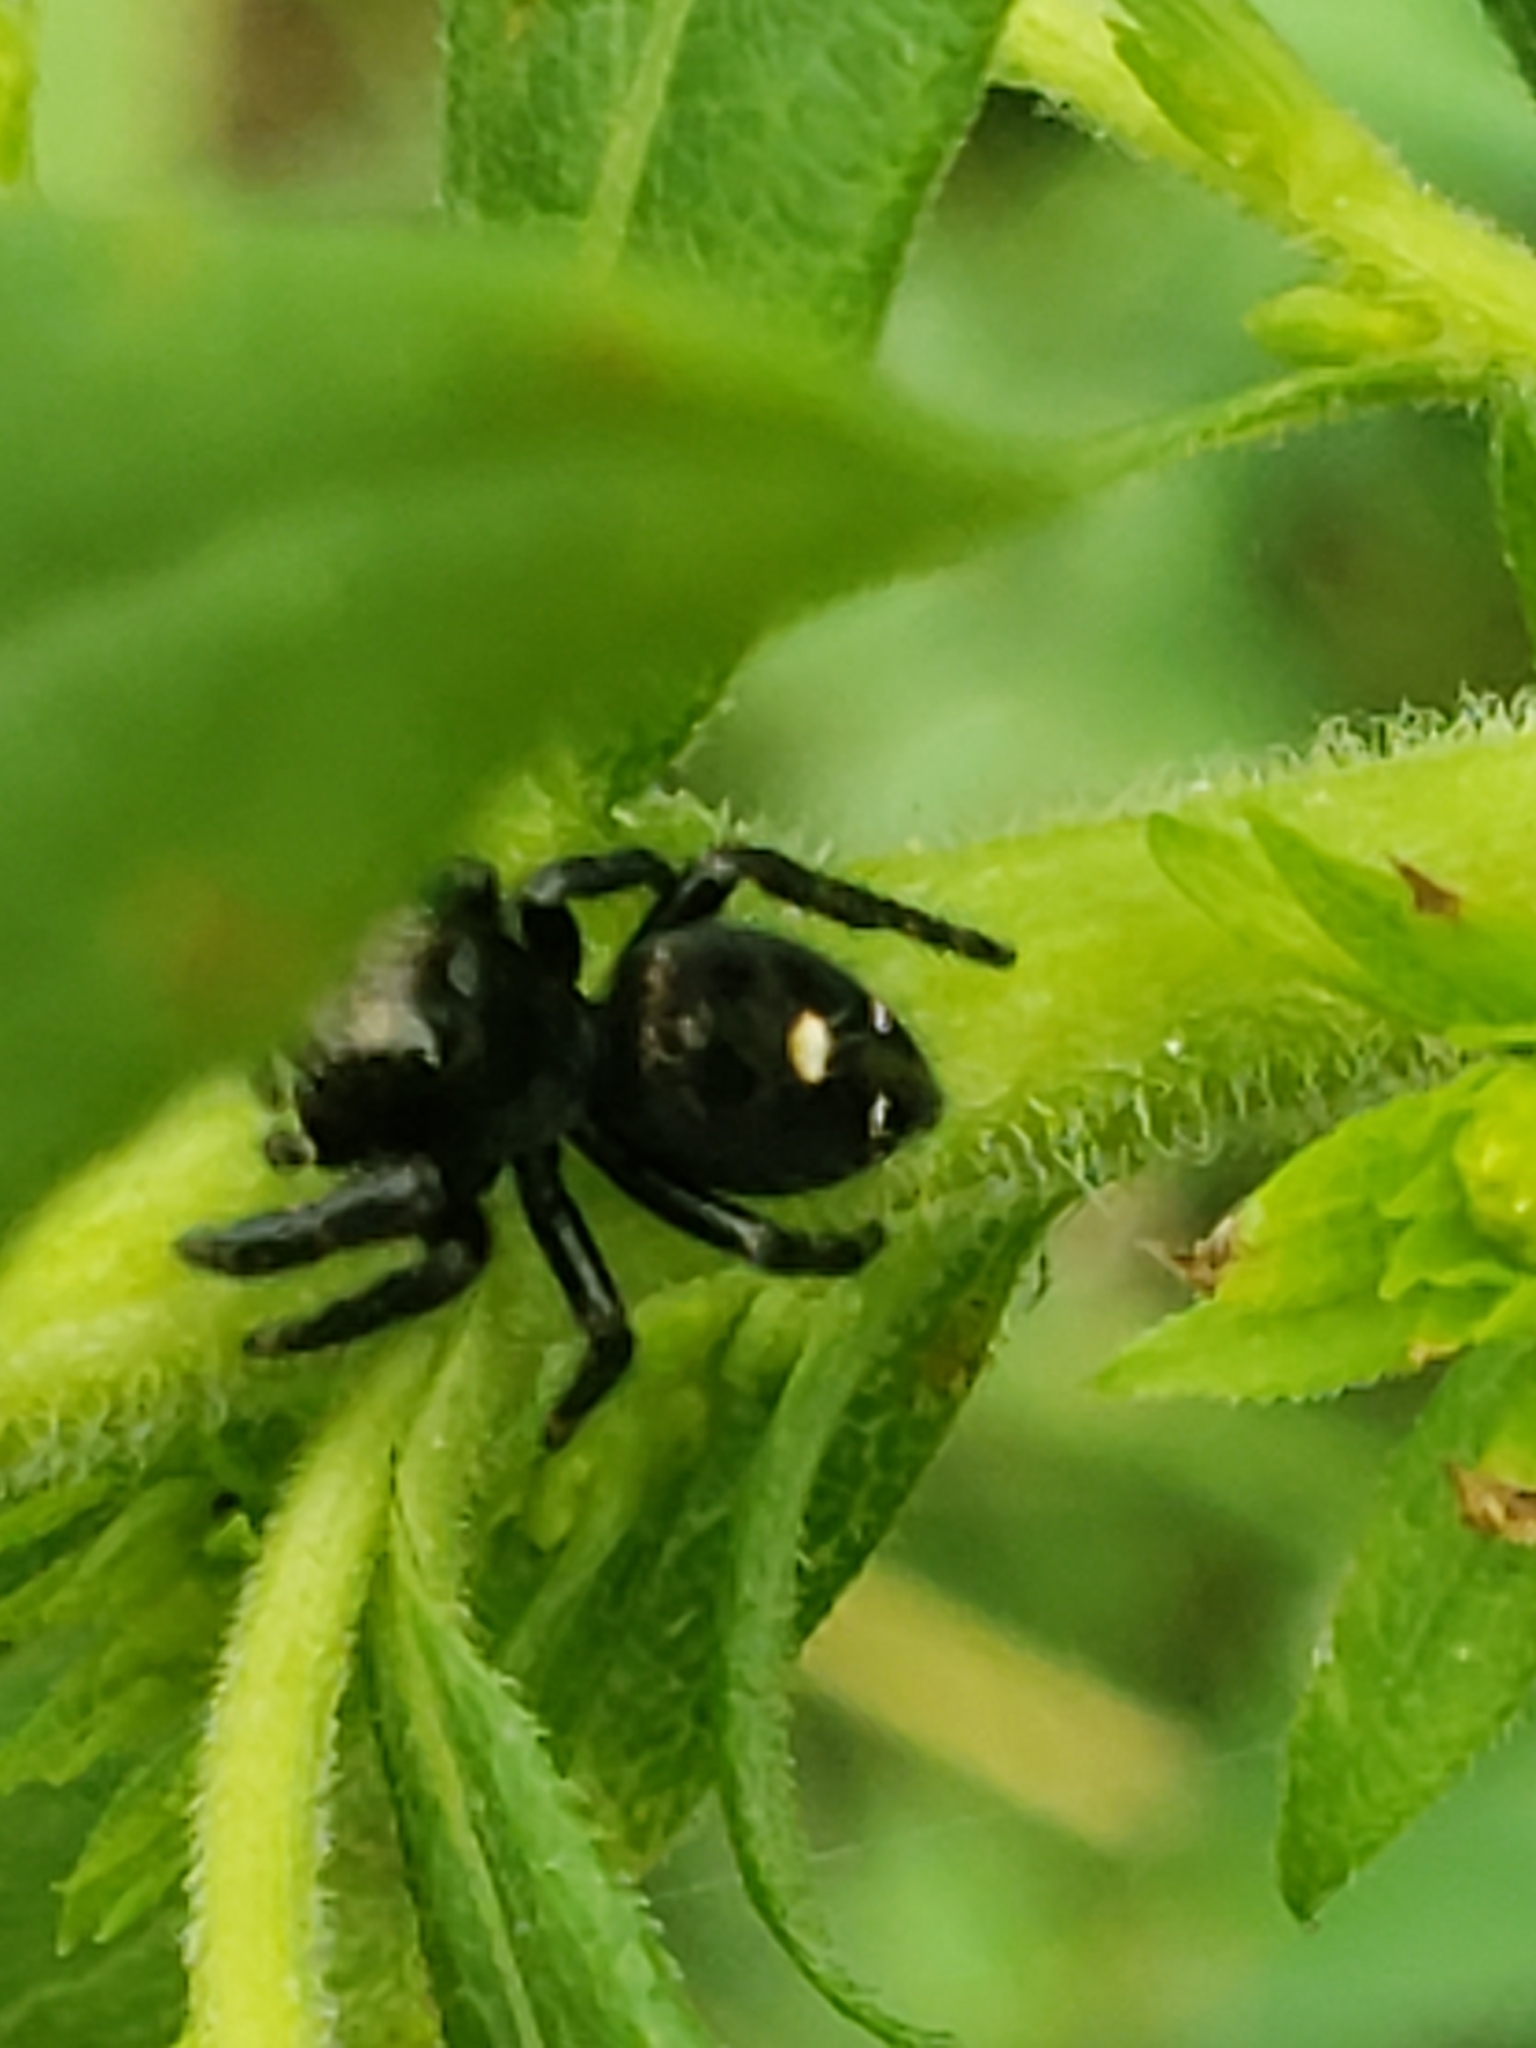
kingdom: Animalia
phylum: Arthropoda
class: Arachnida
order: Araneae
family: Salticidae
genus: Phidippus
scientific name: Phidippus audax
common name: Bold jumper
